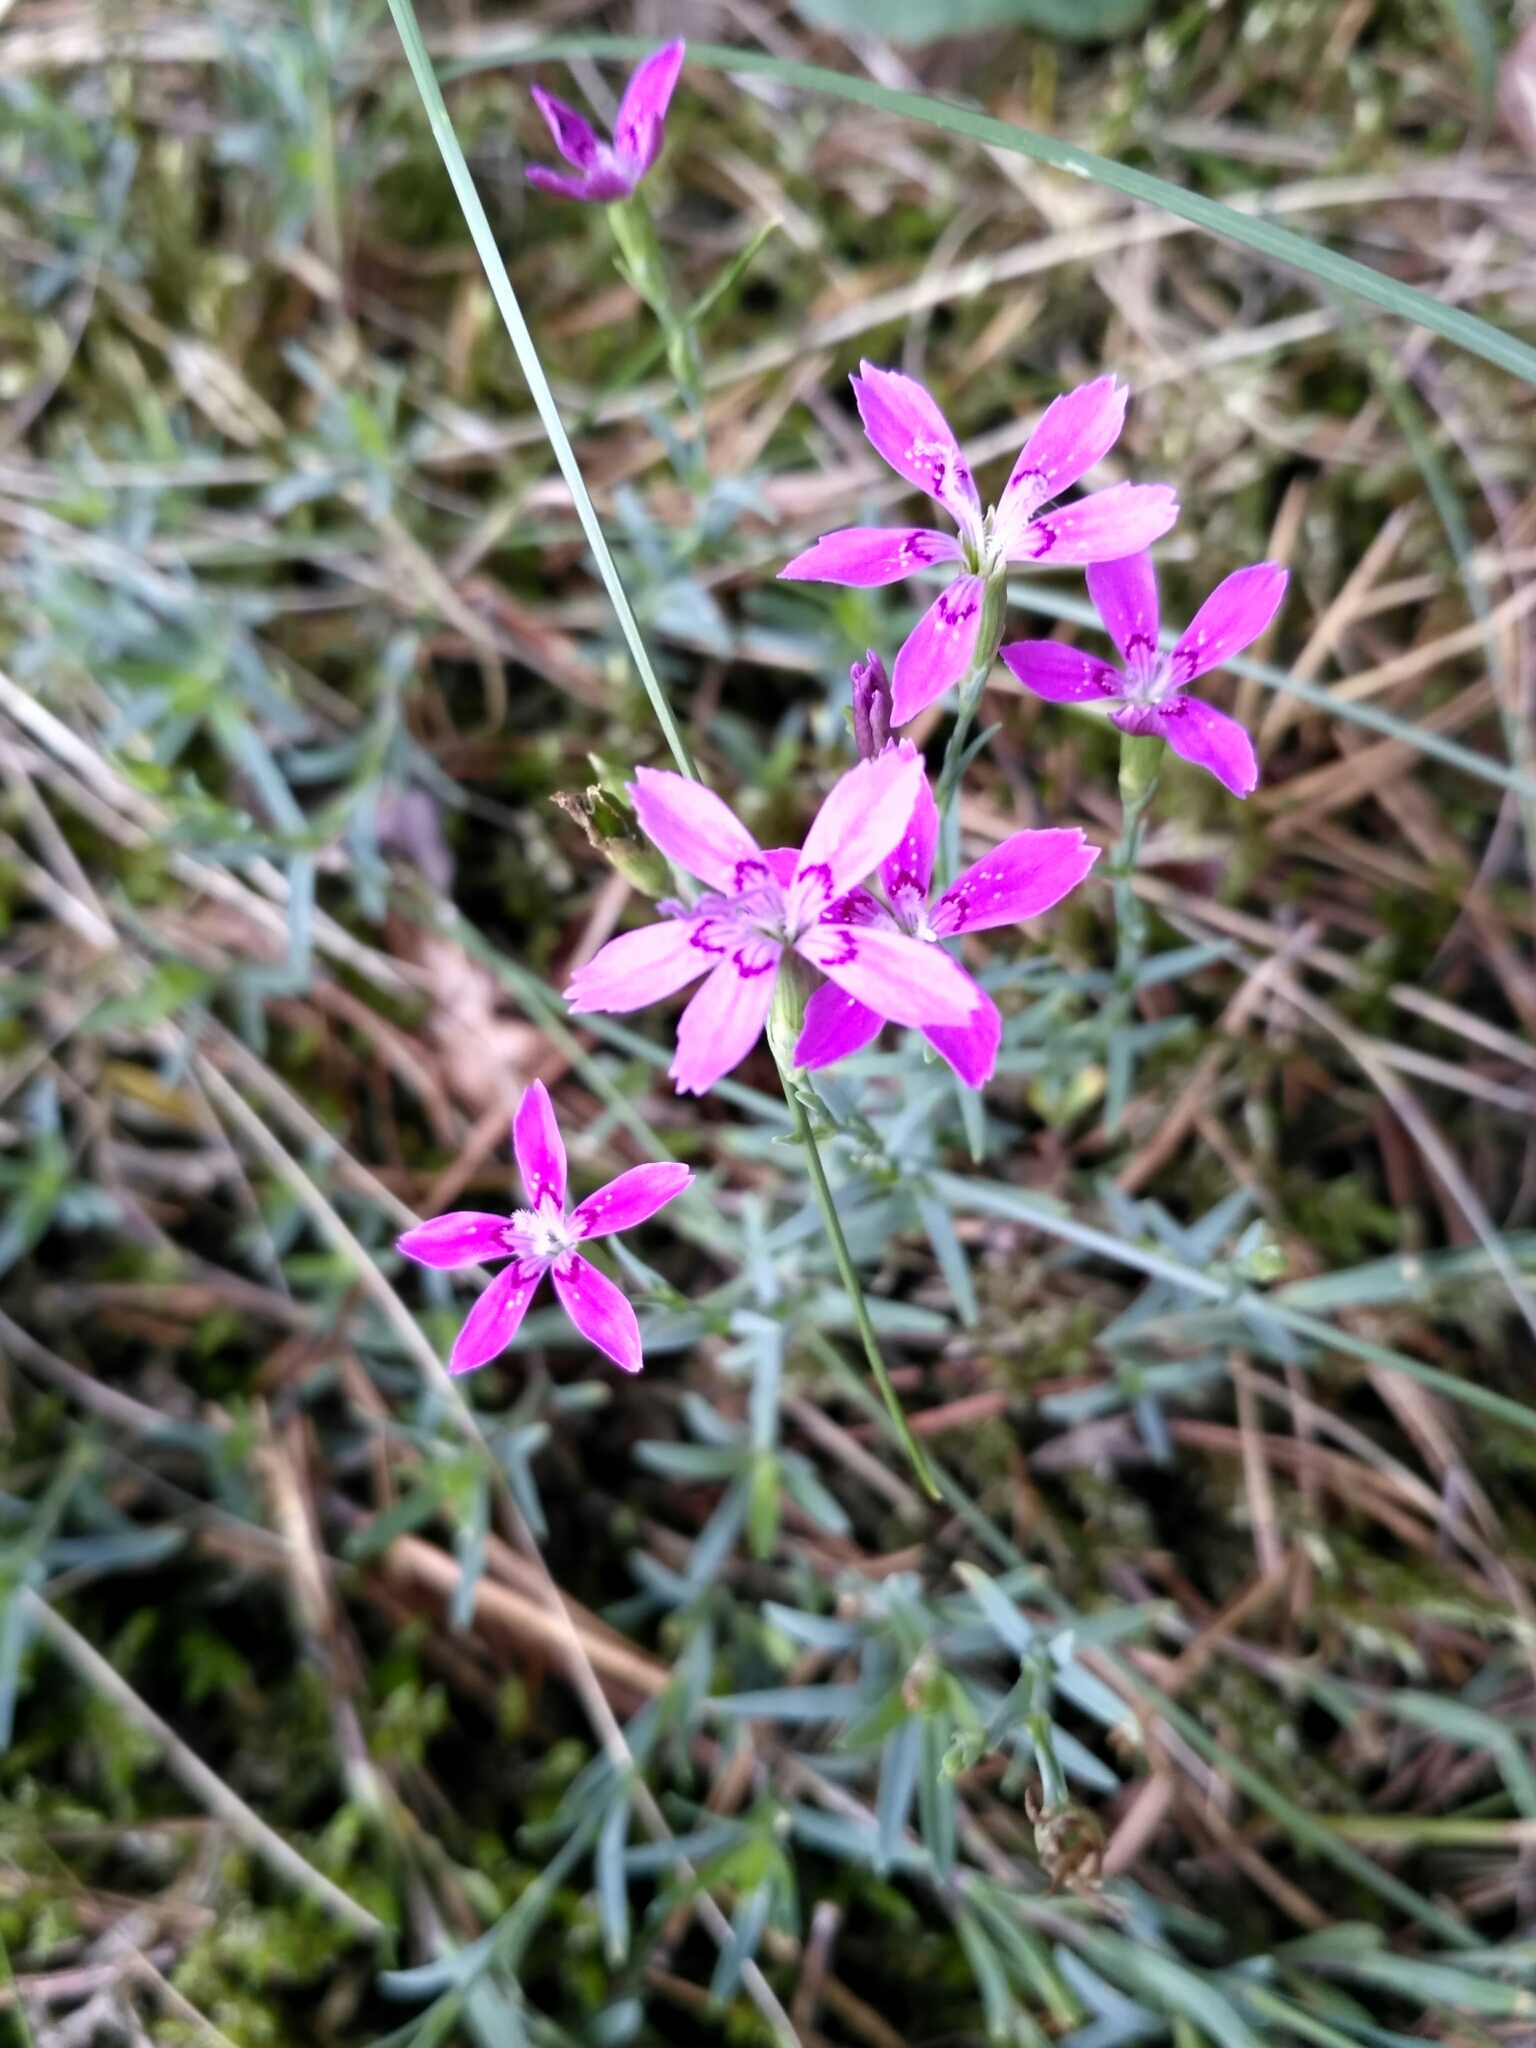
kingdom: Plantae
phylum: Tracheophyta
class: Magnoliopsida
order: Caryophyllales
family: Caryophyllaceae
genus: Dianthus
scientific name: Dianthus deltoides
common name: Maiden pink
